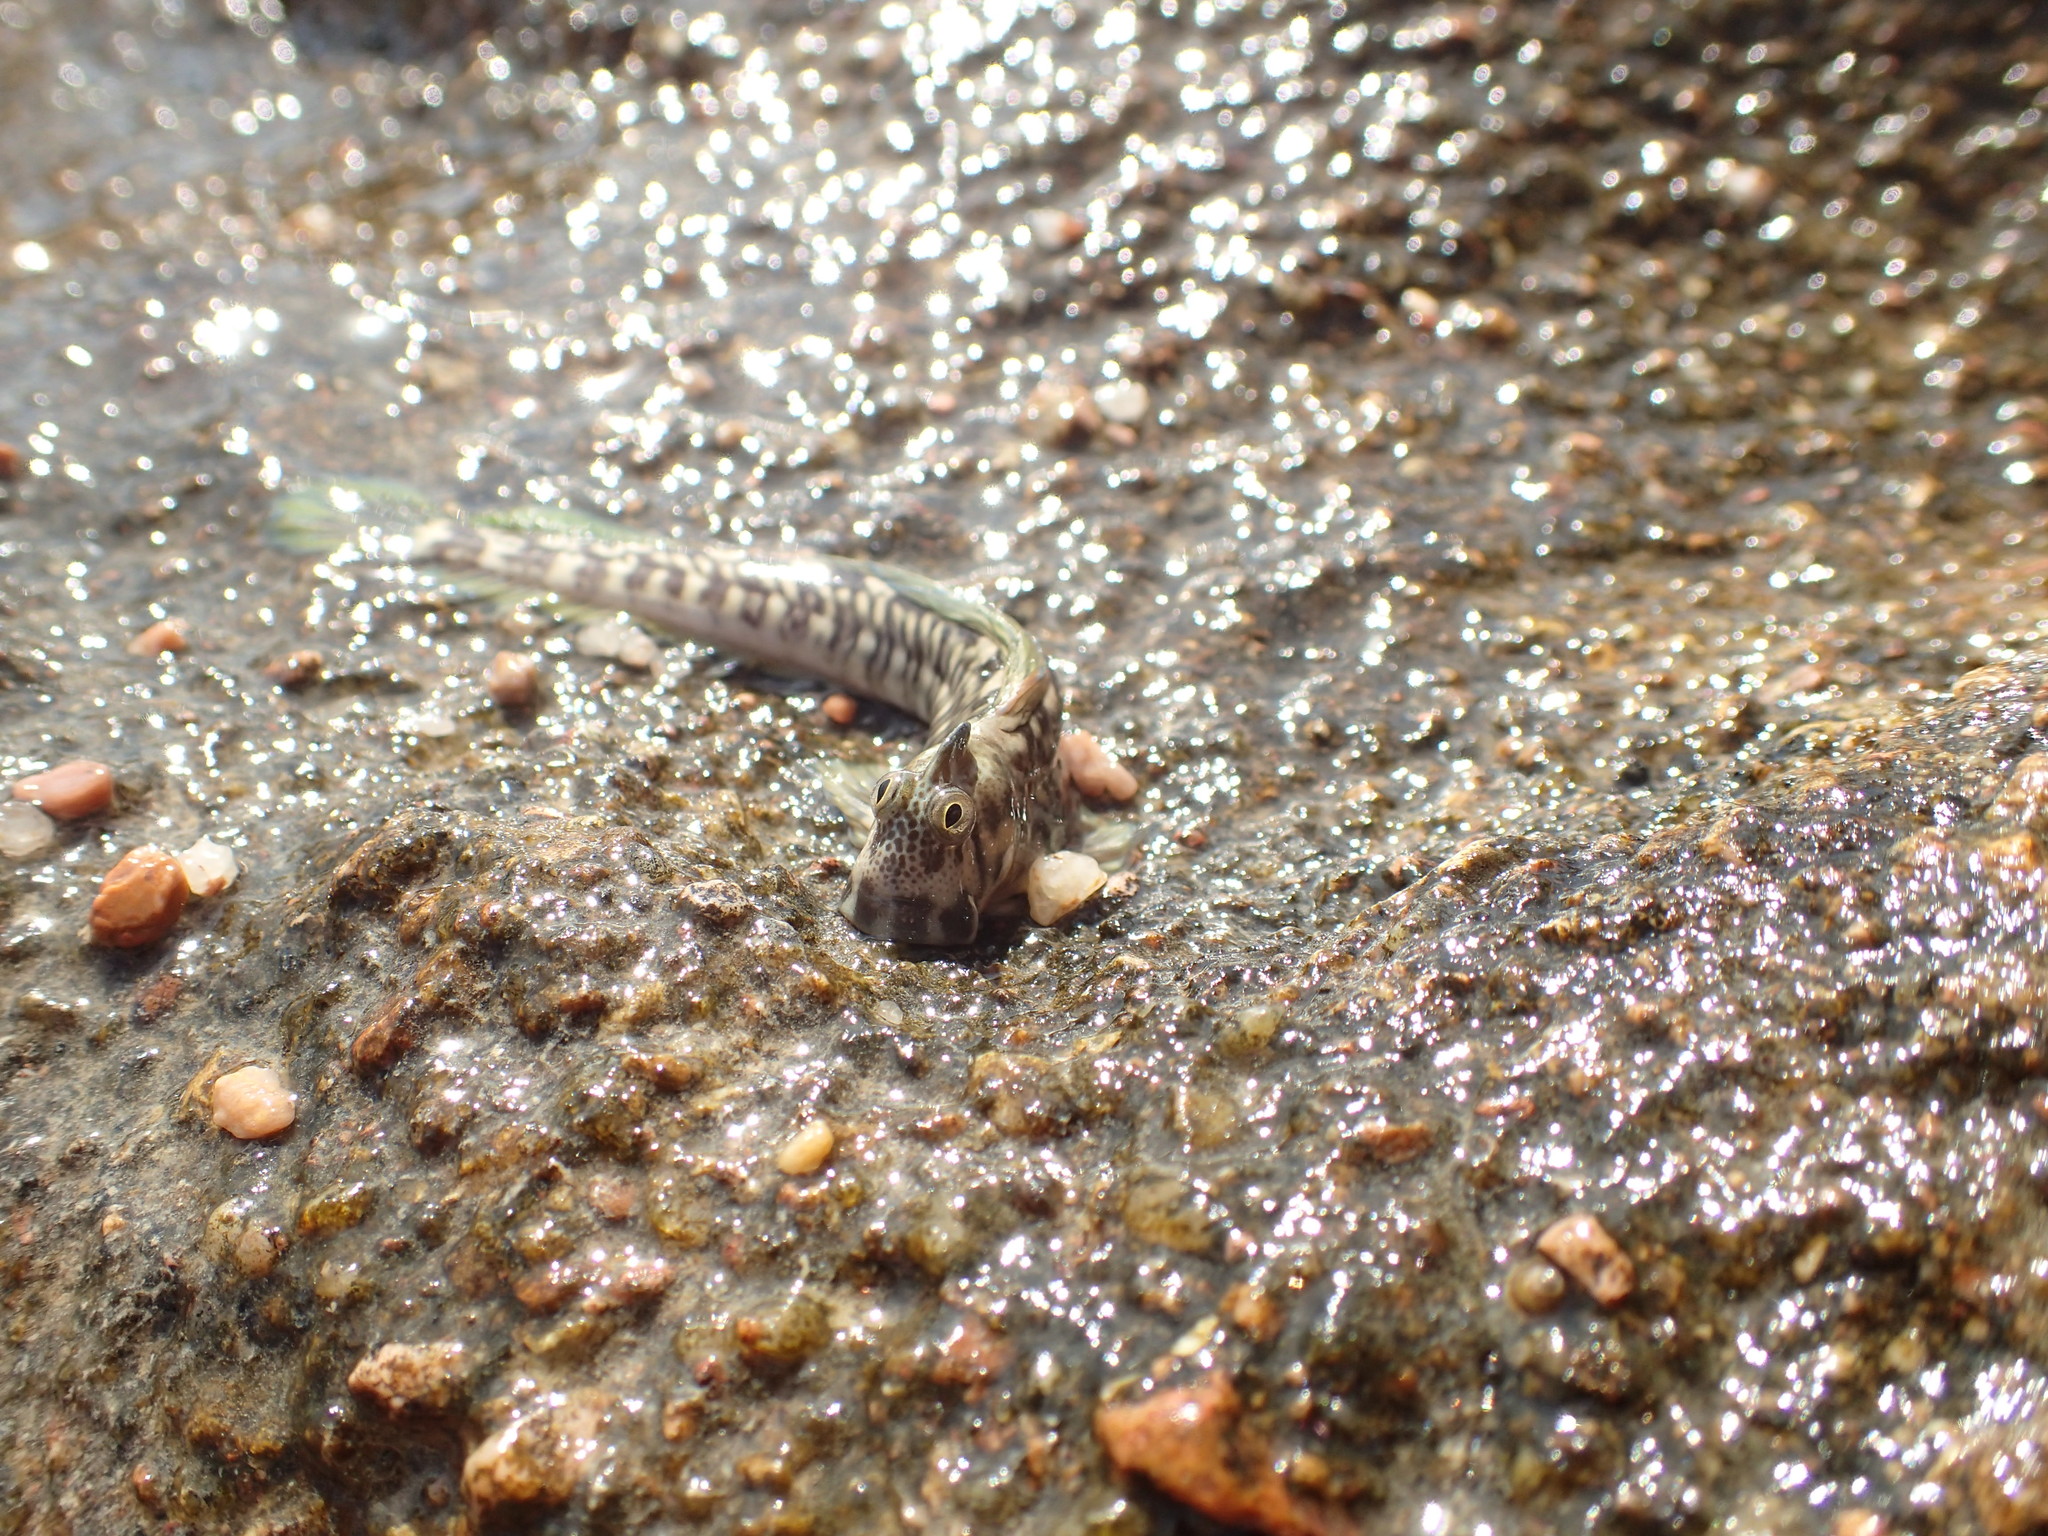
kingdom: Animalia
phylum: Chordata
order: Perciformes
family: Blenniidae
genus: Alticus
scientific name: Alticus magnusi
